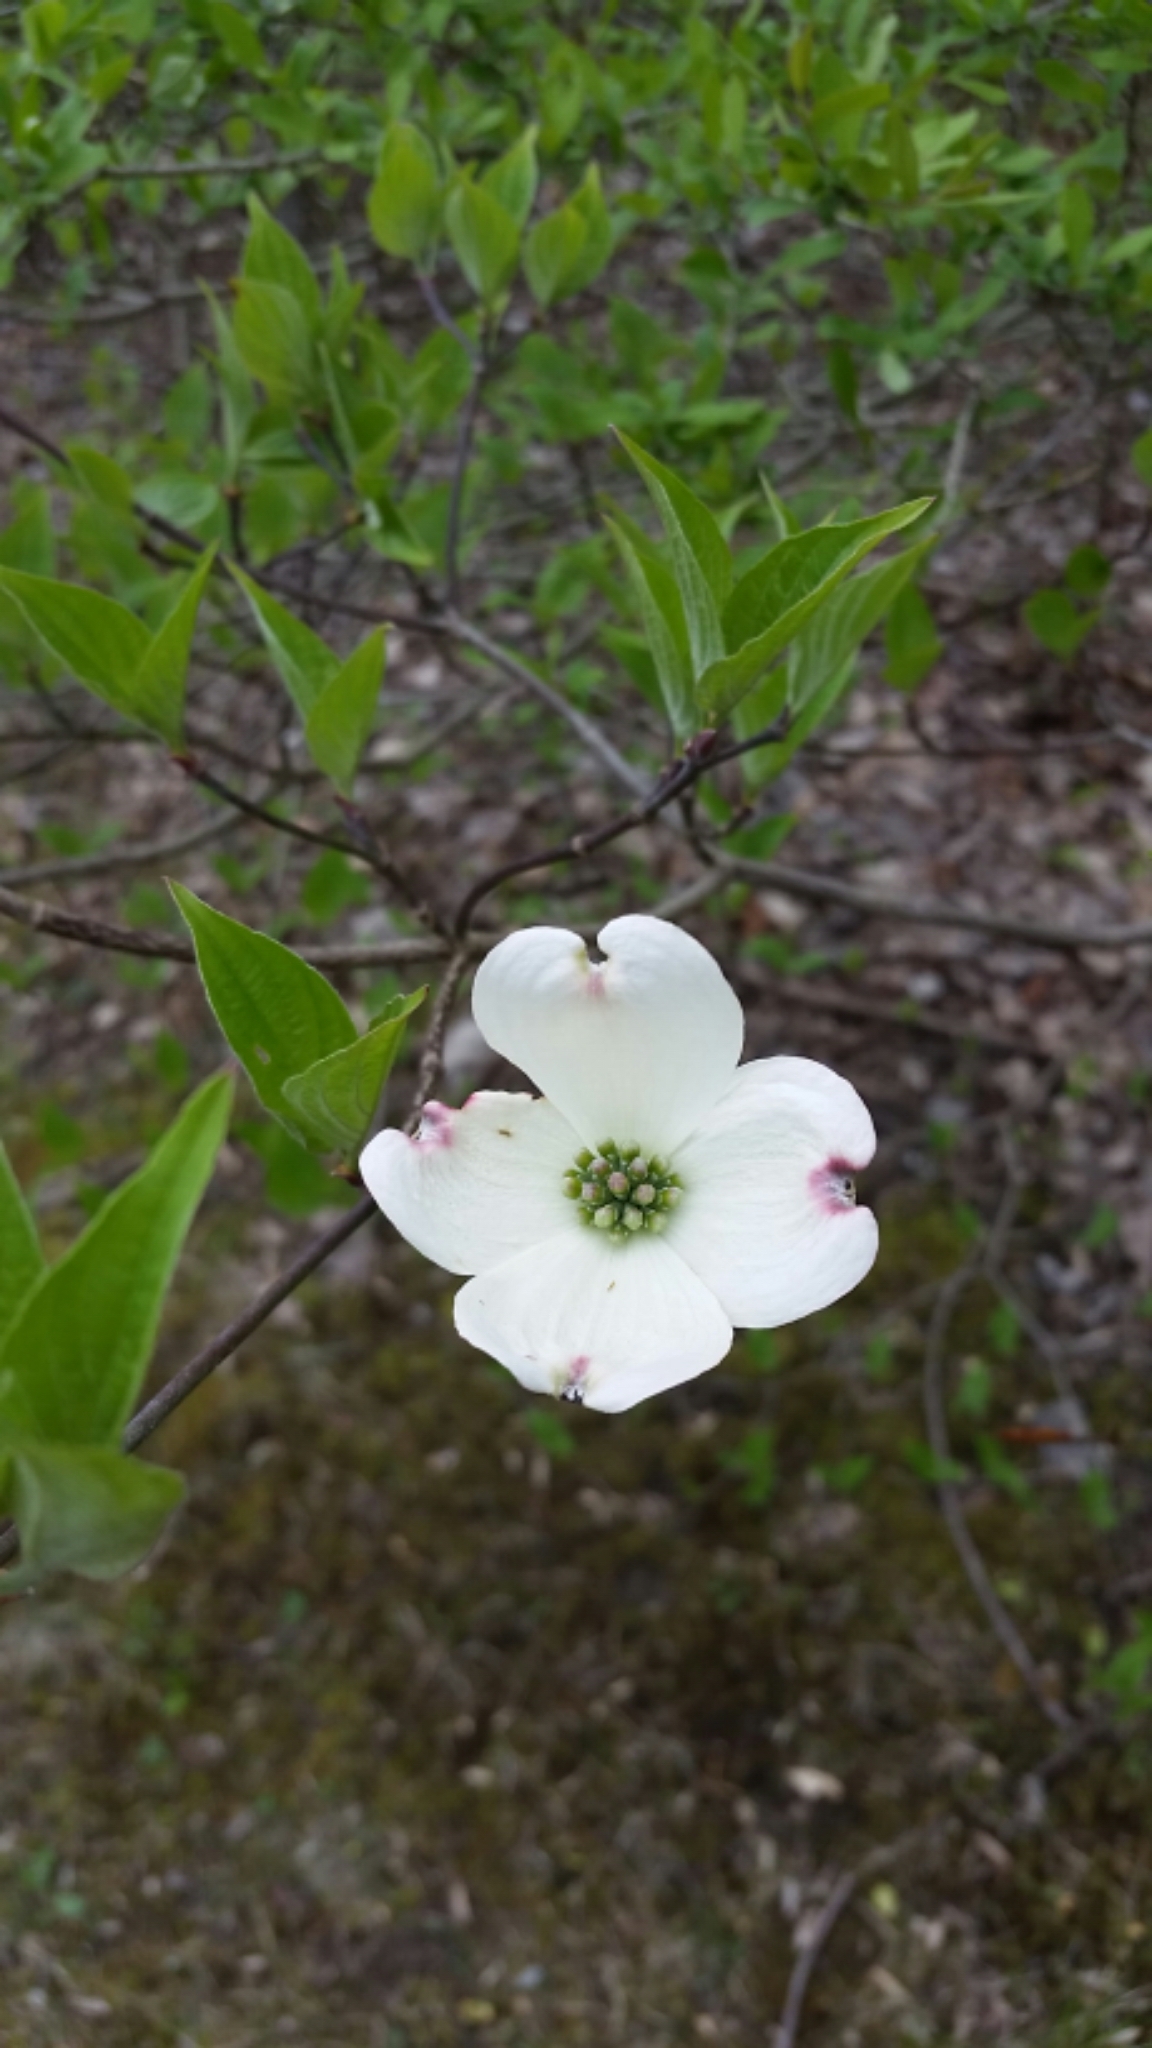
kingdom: Plantae
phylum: Tracheophyta
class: Magnoliopsida
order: Cornales
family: Cornaceae
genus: Cornus
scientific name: Cornus florida
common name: Flowering dogwood
